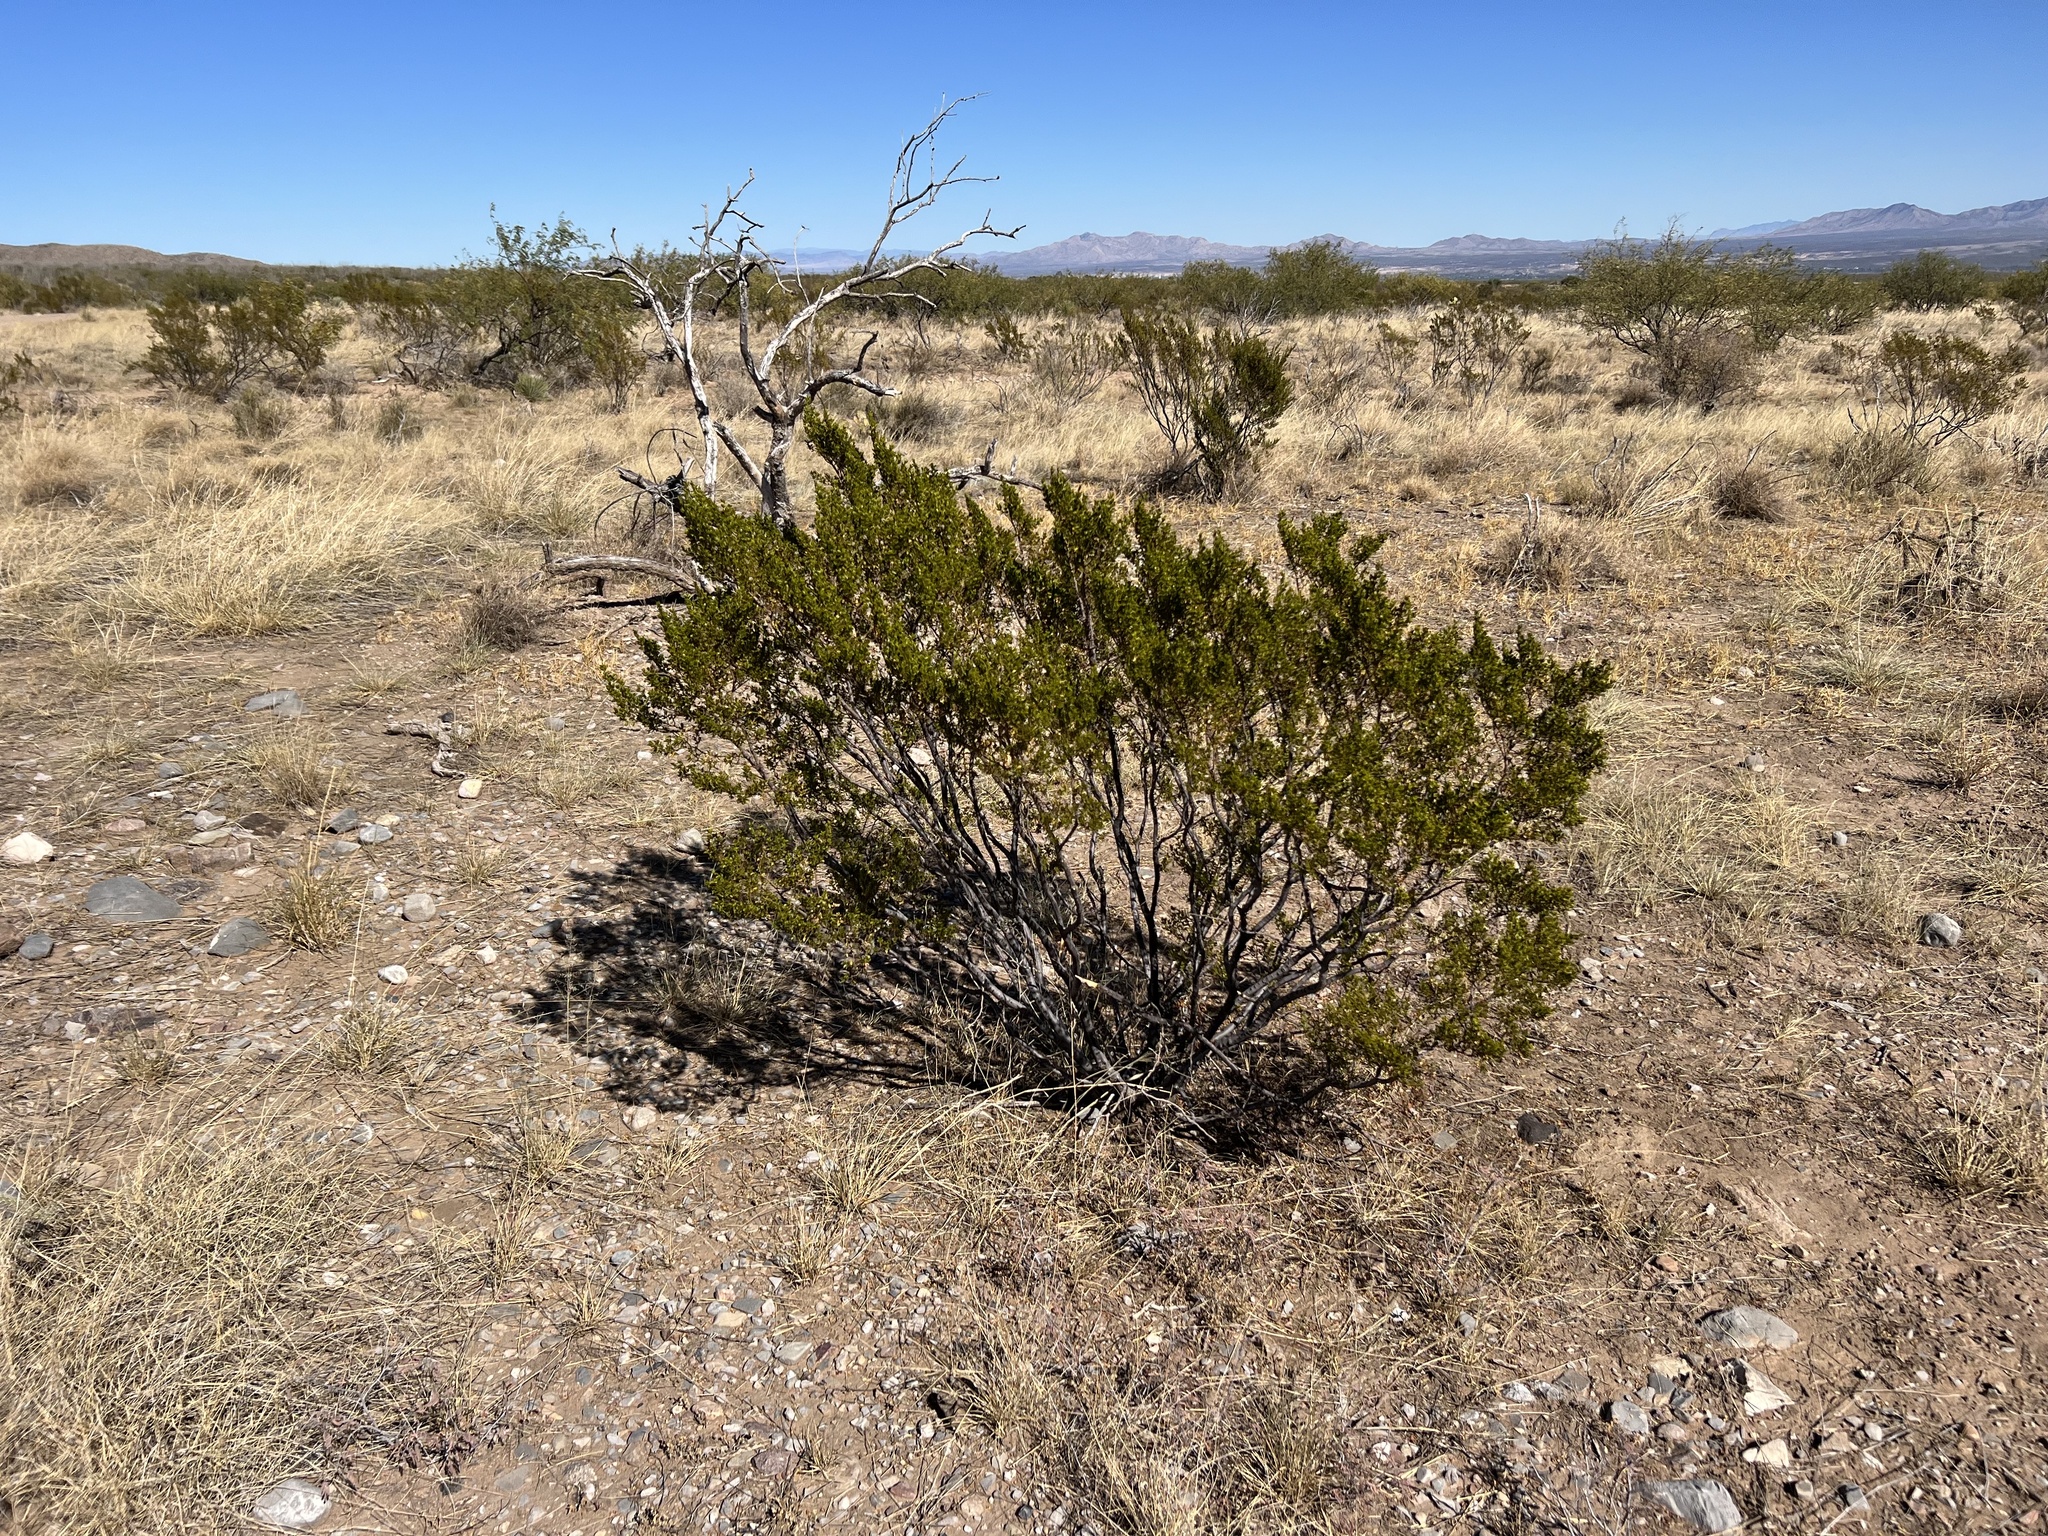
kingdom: Plantae
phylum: Tracheophyta
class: Magnoliopsida
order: Zygophyllales
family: Zygophyllaceae
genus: Larrea
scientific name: Larrea tridentata
